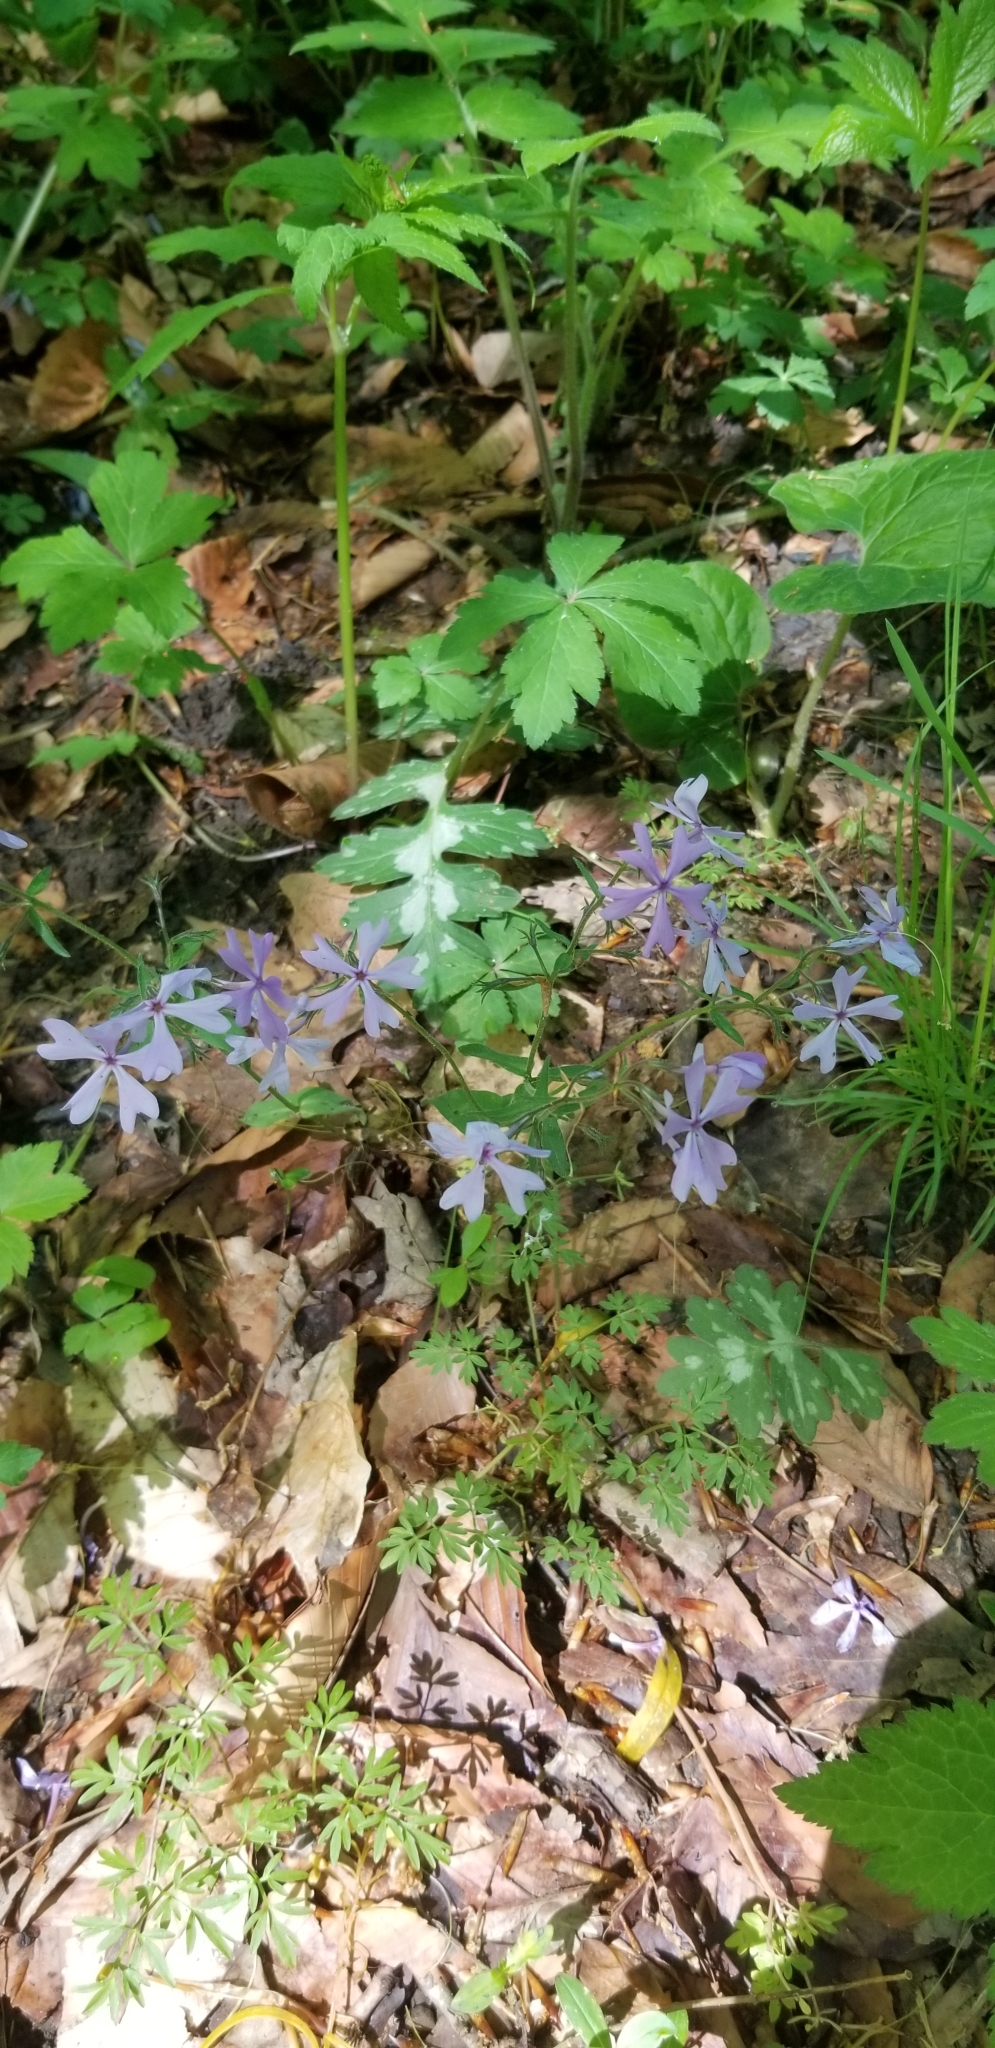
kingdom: Plantae
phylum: Tracheophyta
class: Magnoliopsida
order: Ericales
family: Polemoniaceae
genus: Phlox
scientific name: Phlox divaricata
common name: Blue phlox
